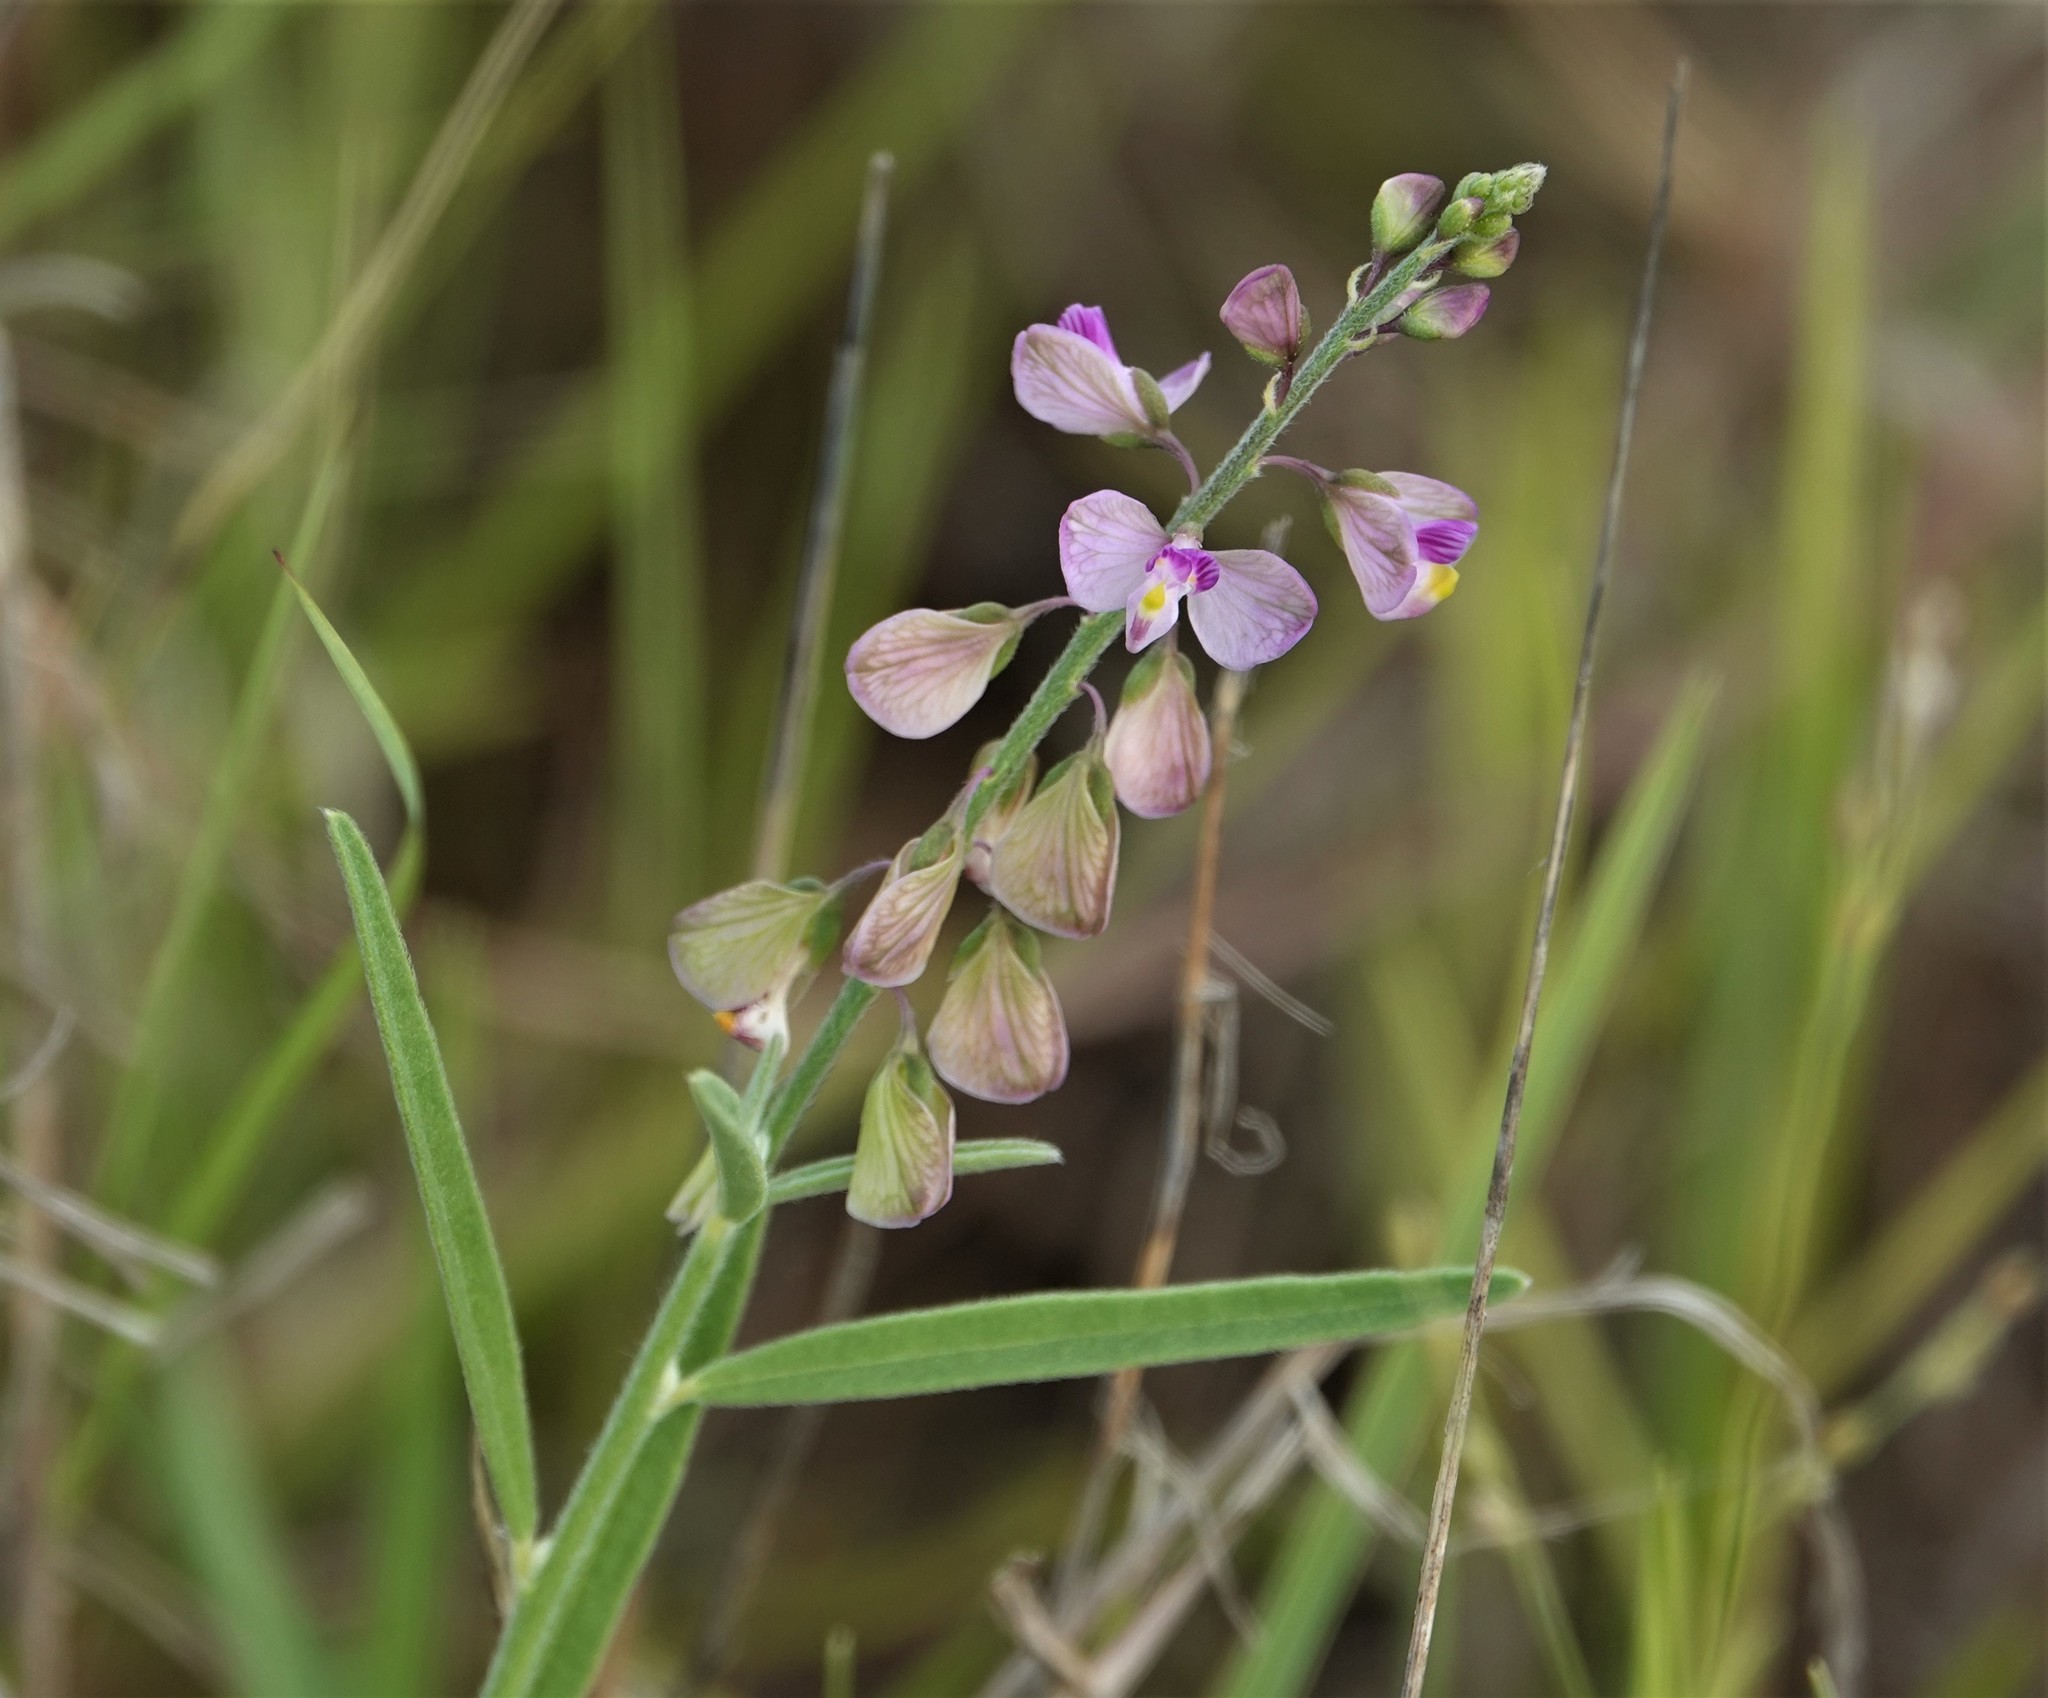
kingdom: Plantae
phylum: Tracheophyta
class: Magnoliopsida
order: Fabales
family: Polygalaceae
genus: Asemeia
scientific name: Asemeia grandiflora
